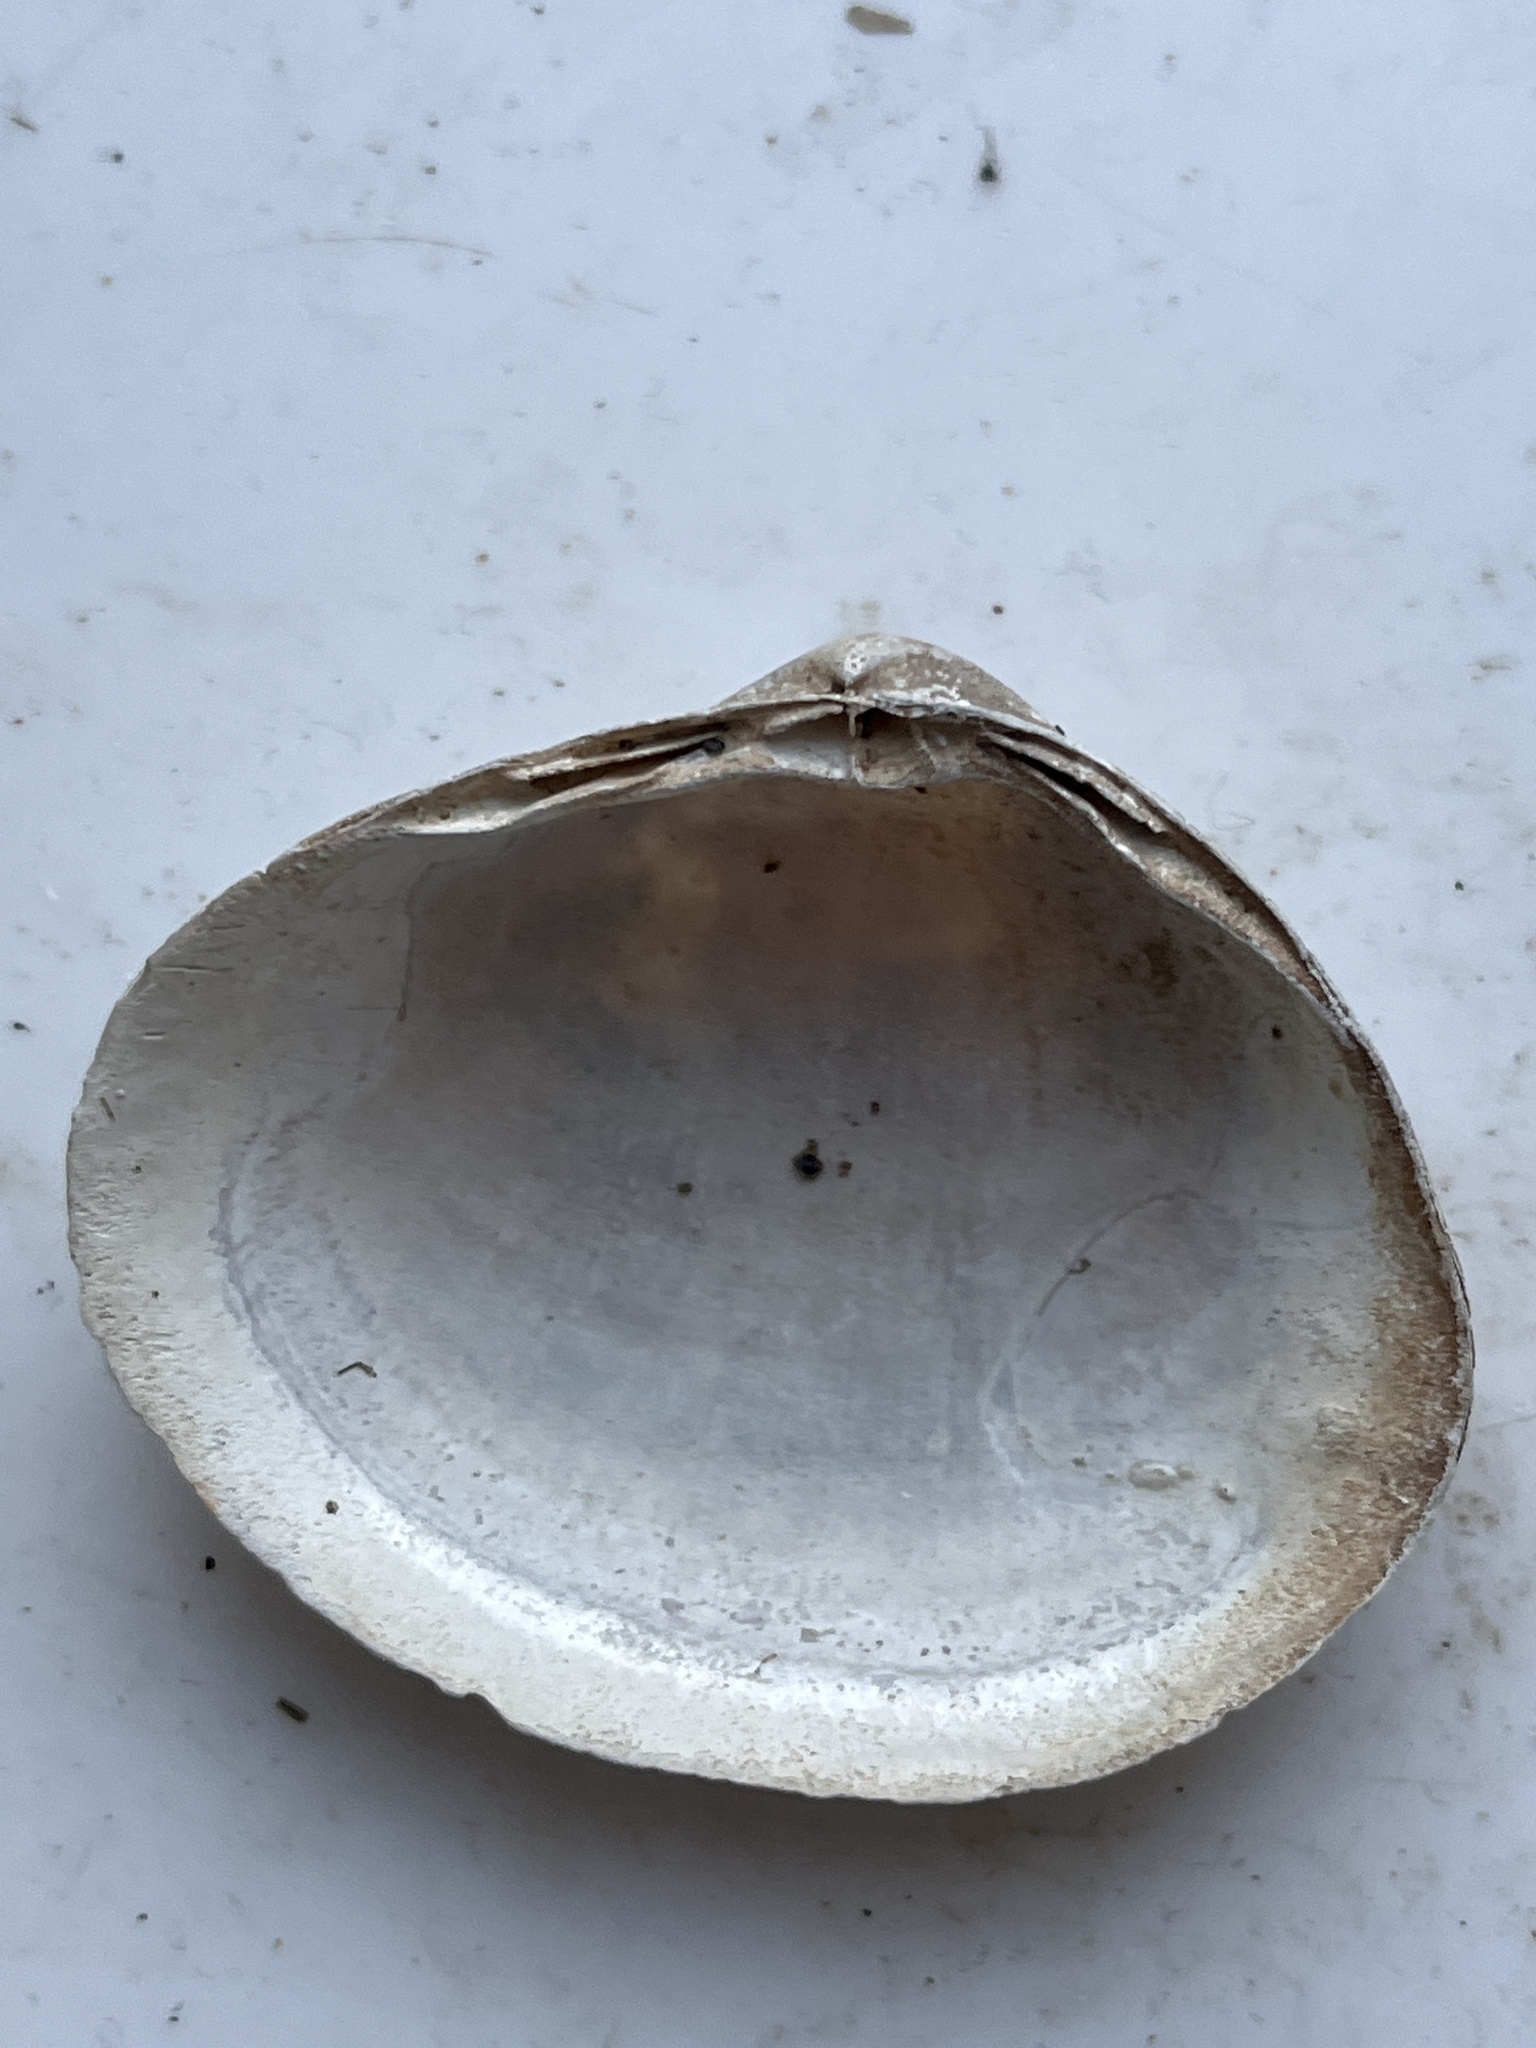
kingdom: Animalia
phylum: Mollusca
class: Bivalvia
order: Venerida
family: Mactridae
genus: Mactra
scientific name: Mactra stultorum
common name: Rayed trough shell
